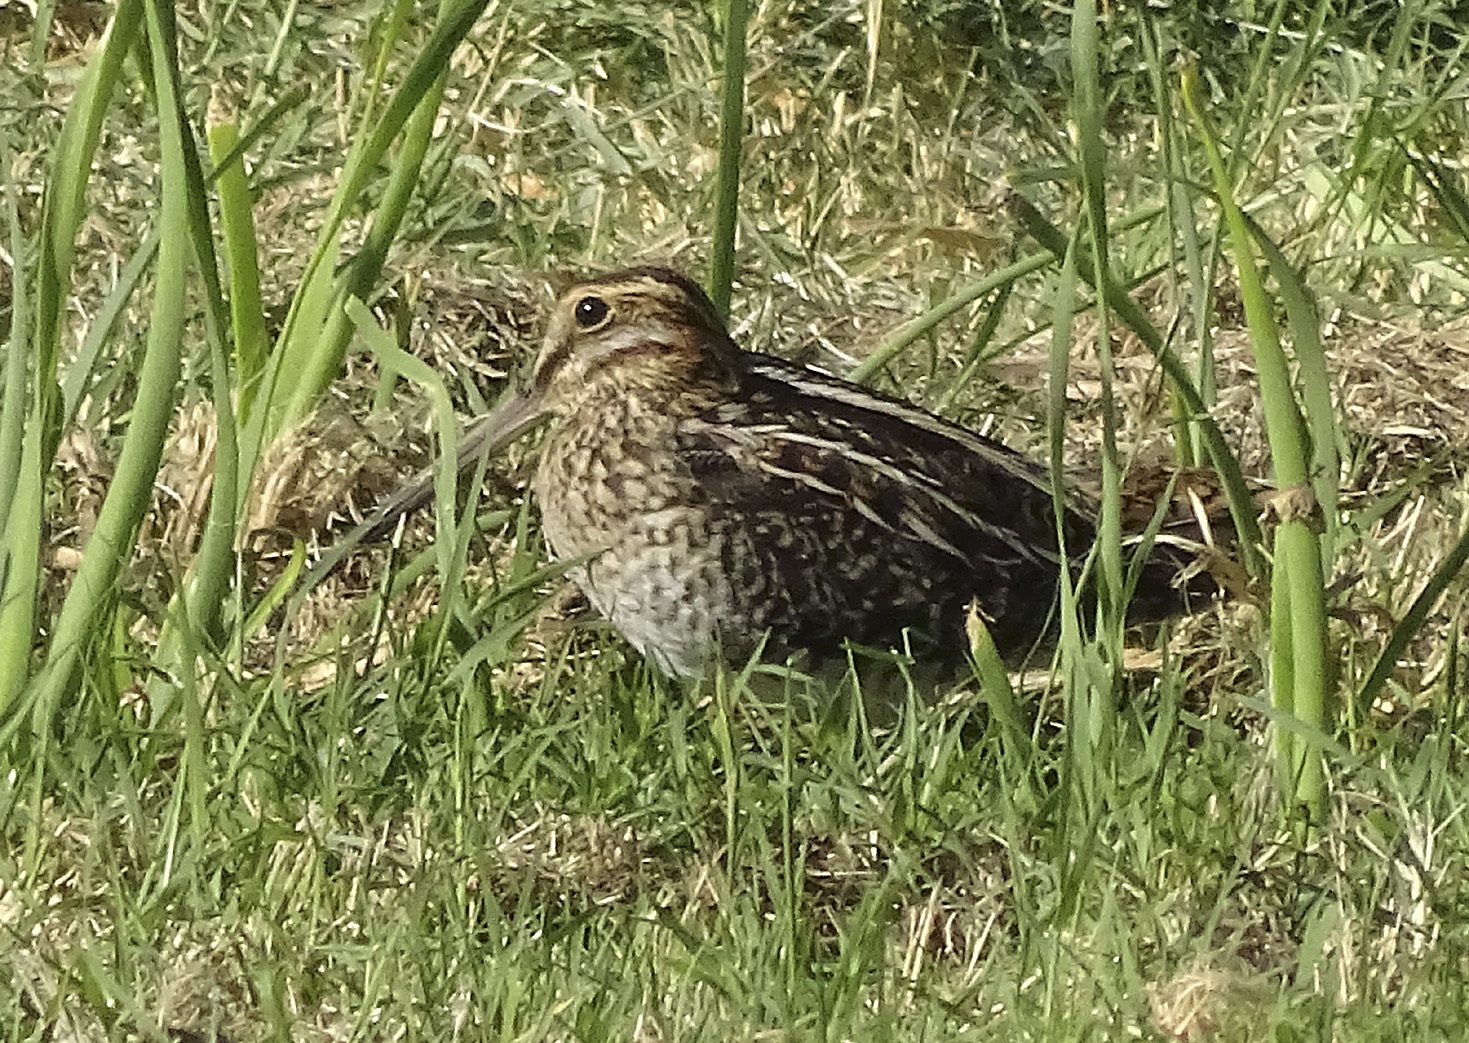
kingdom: Animalia
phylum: Chordata
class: Aves
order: Charadriiformes
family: Scolopacidae
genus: Gallinago
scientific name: Gallinago delicata
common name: Wilson's snipe
